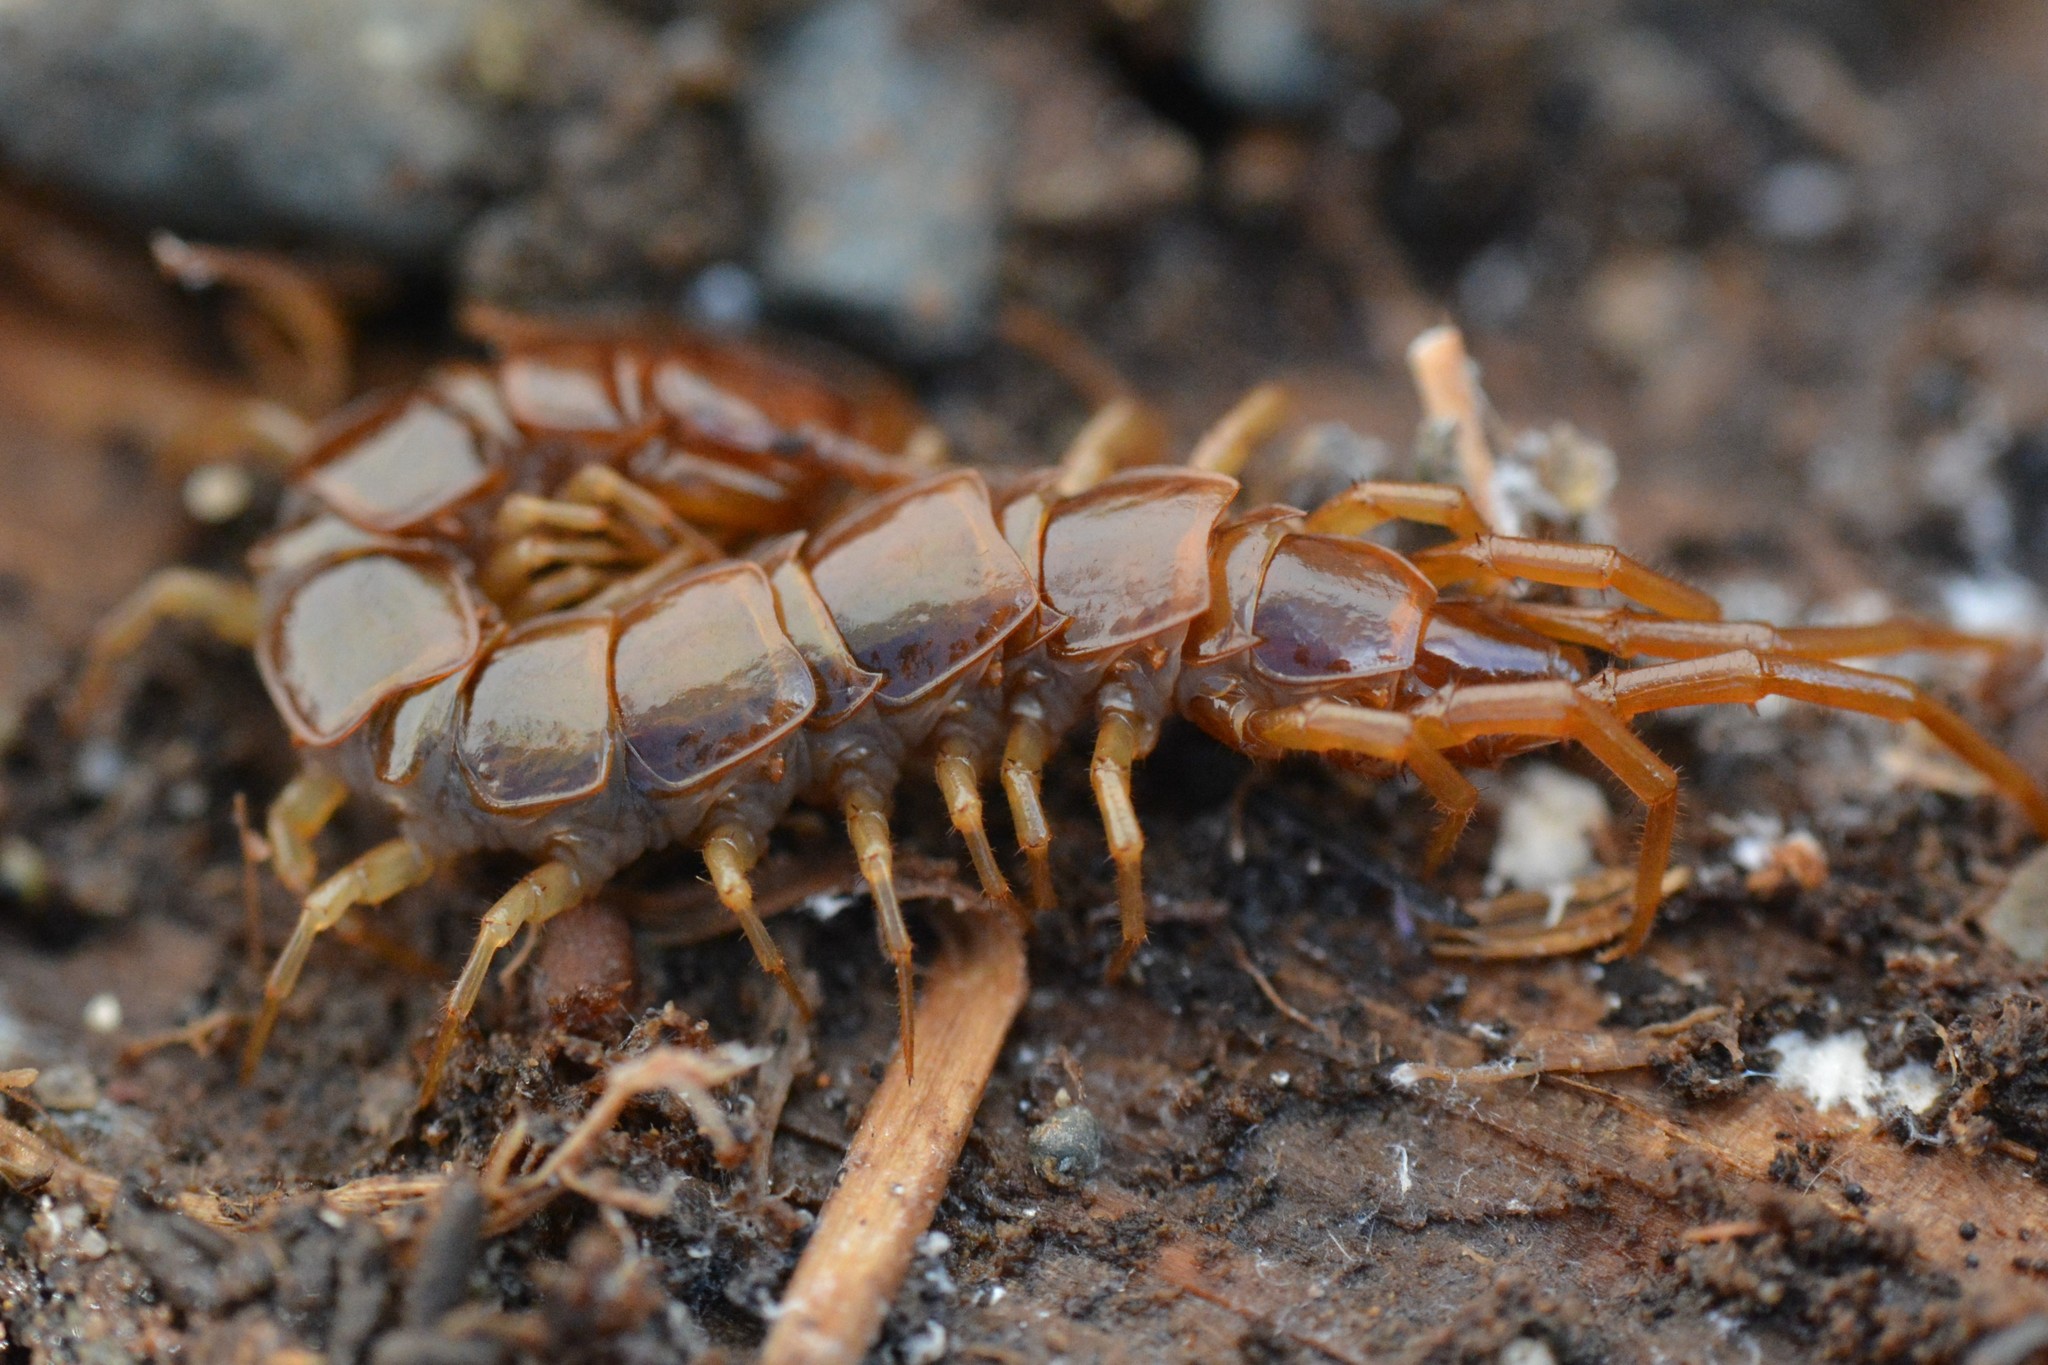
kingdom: Animalia
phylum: Arthropoda
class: Chilopoda
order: Lithobiomorpha
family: Lithobiidae
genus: Lithobius
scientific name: Lithobius forficatus
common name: Centipede
